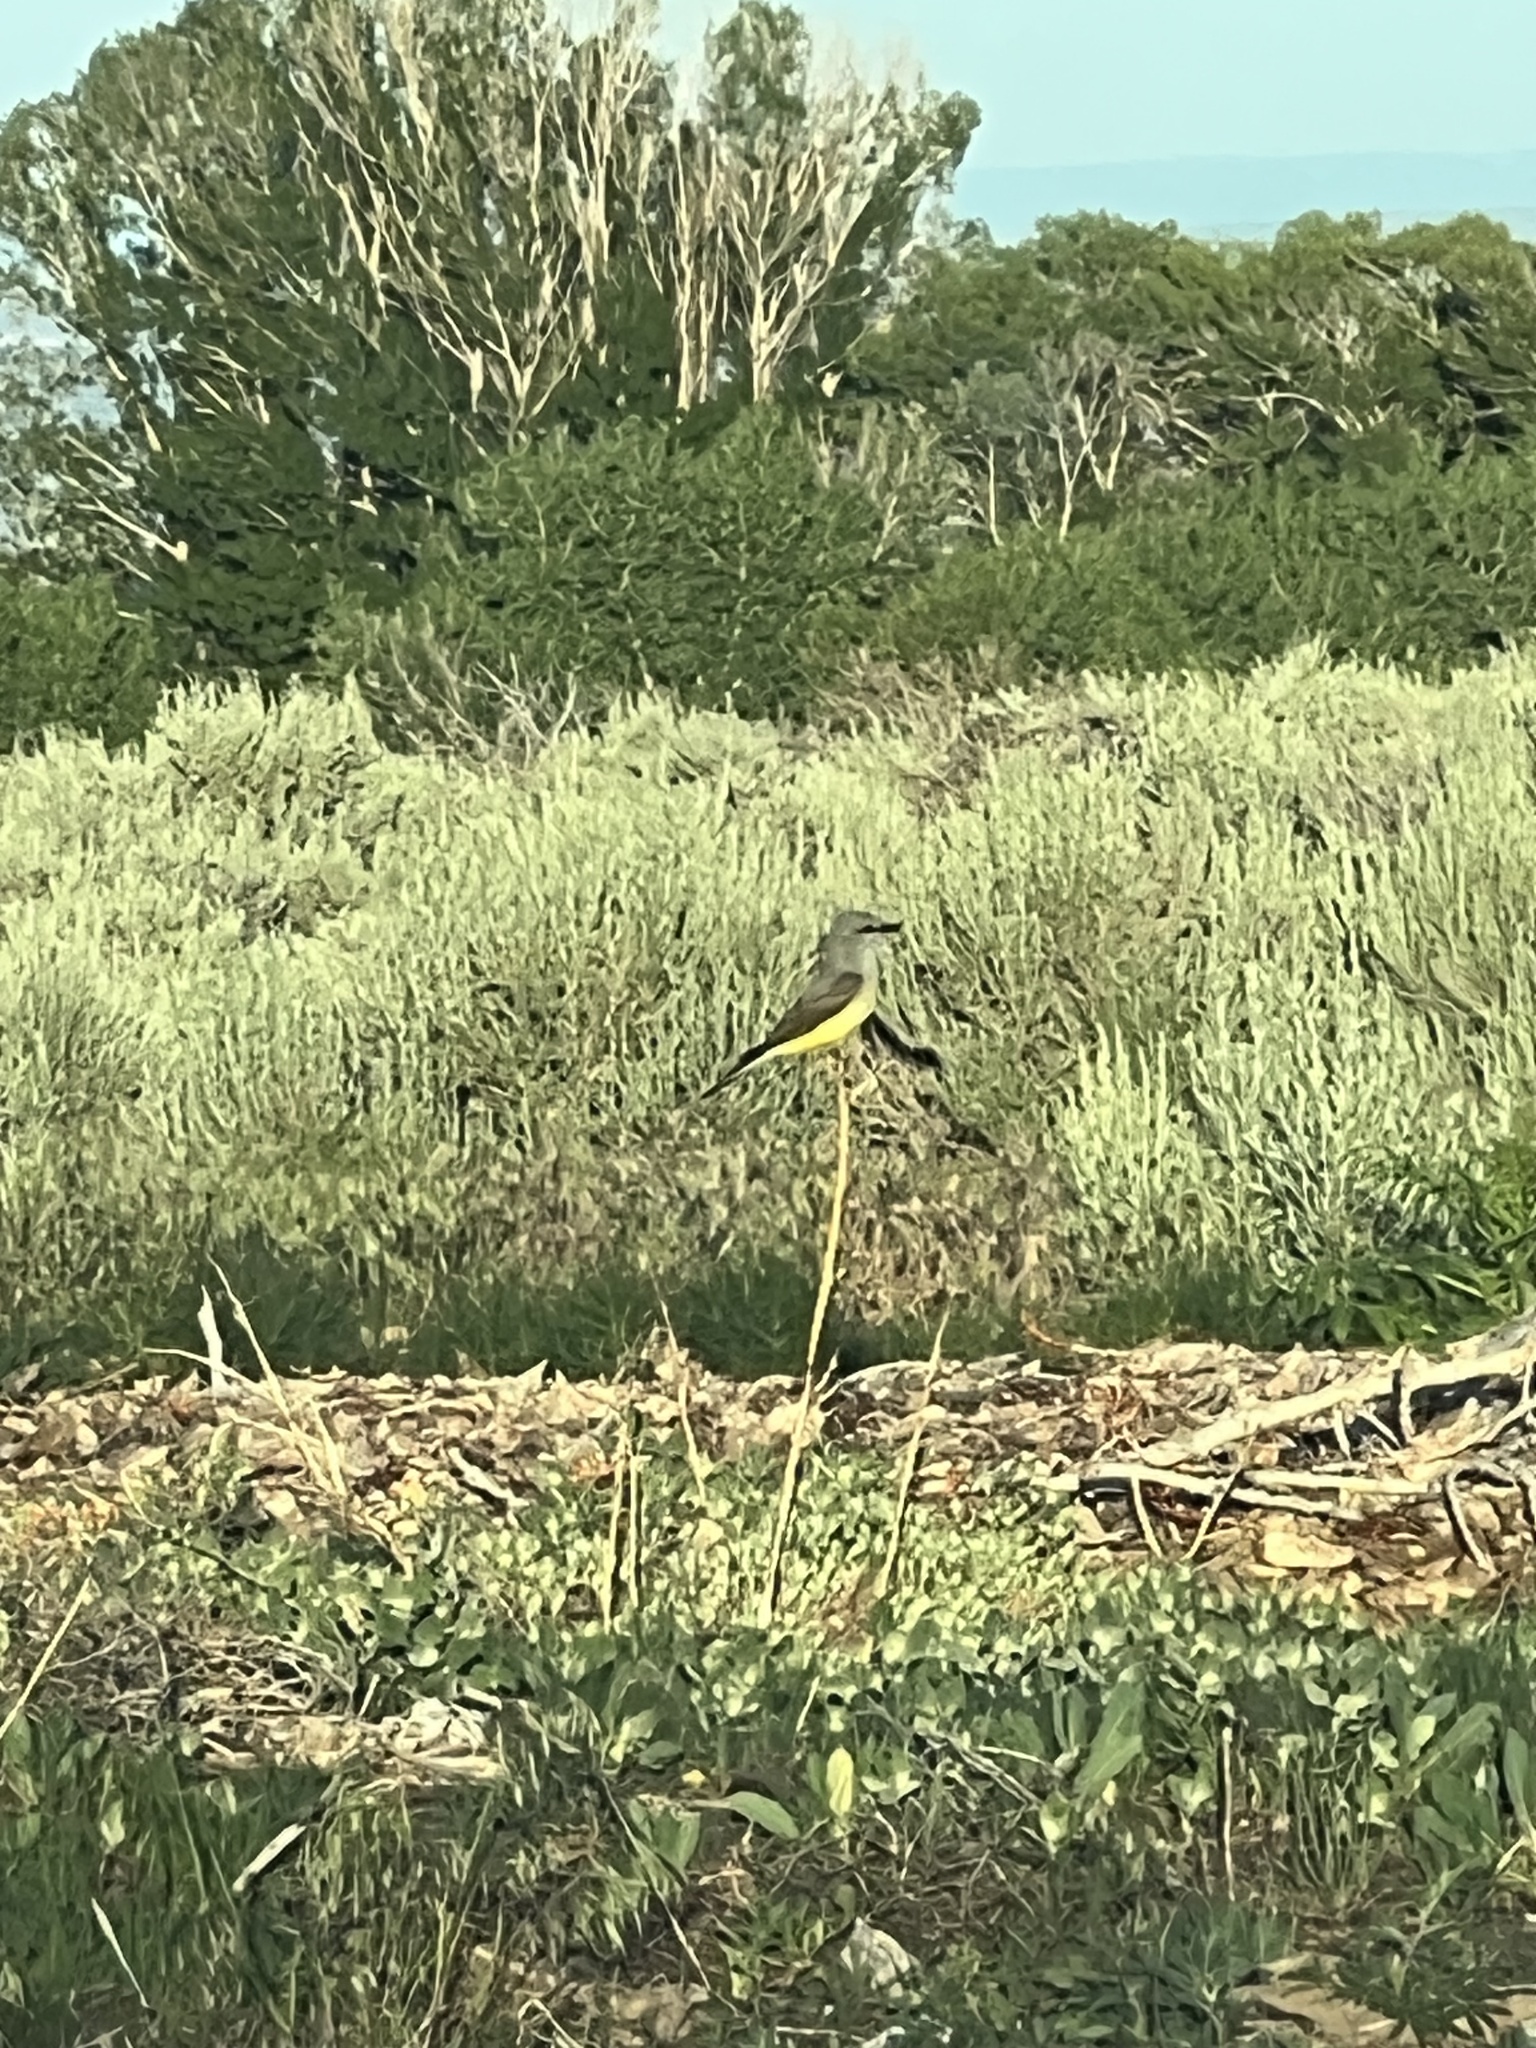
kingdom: Animalia
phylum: Chordata
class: Aves
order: Passeriformes
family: Tyrannidae
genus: Tyrannus
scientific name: Tyrannus verticalis
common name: Western kingbird
